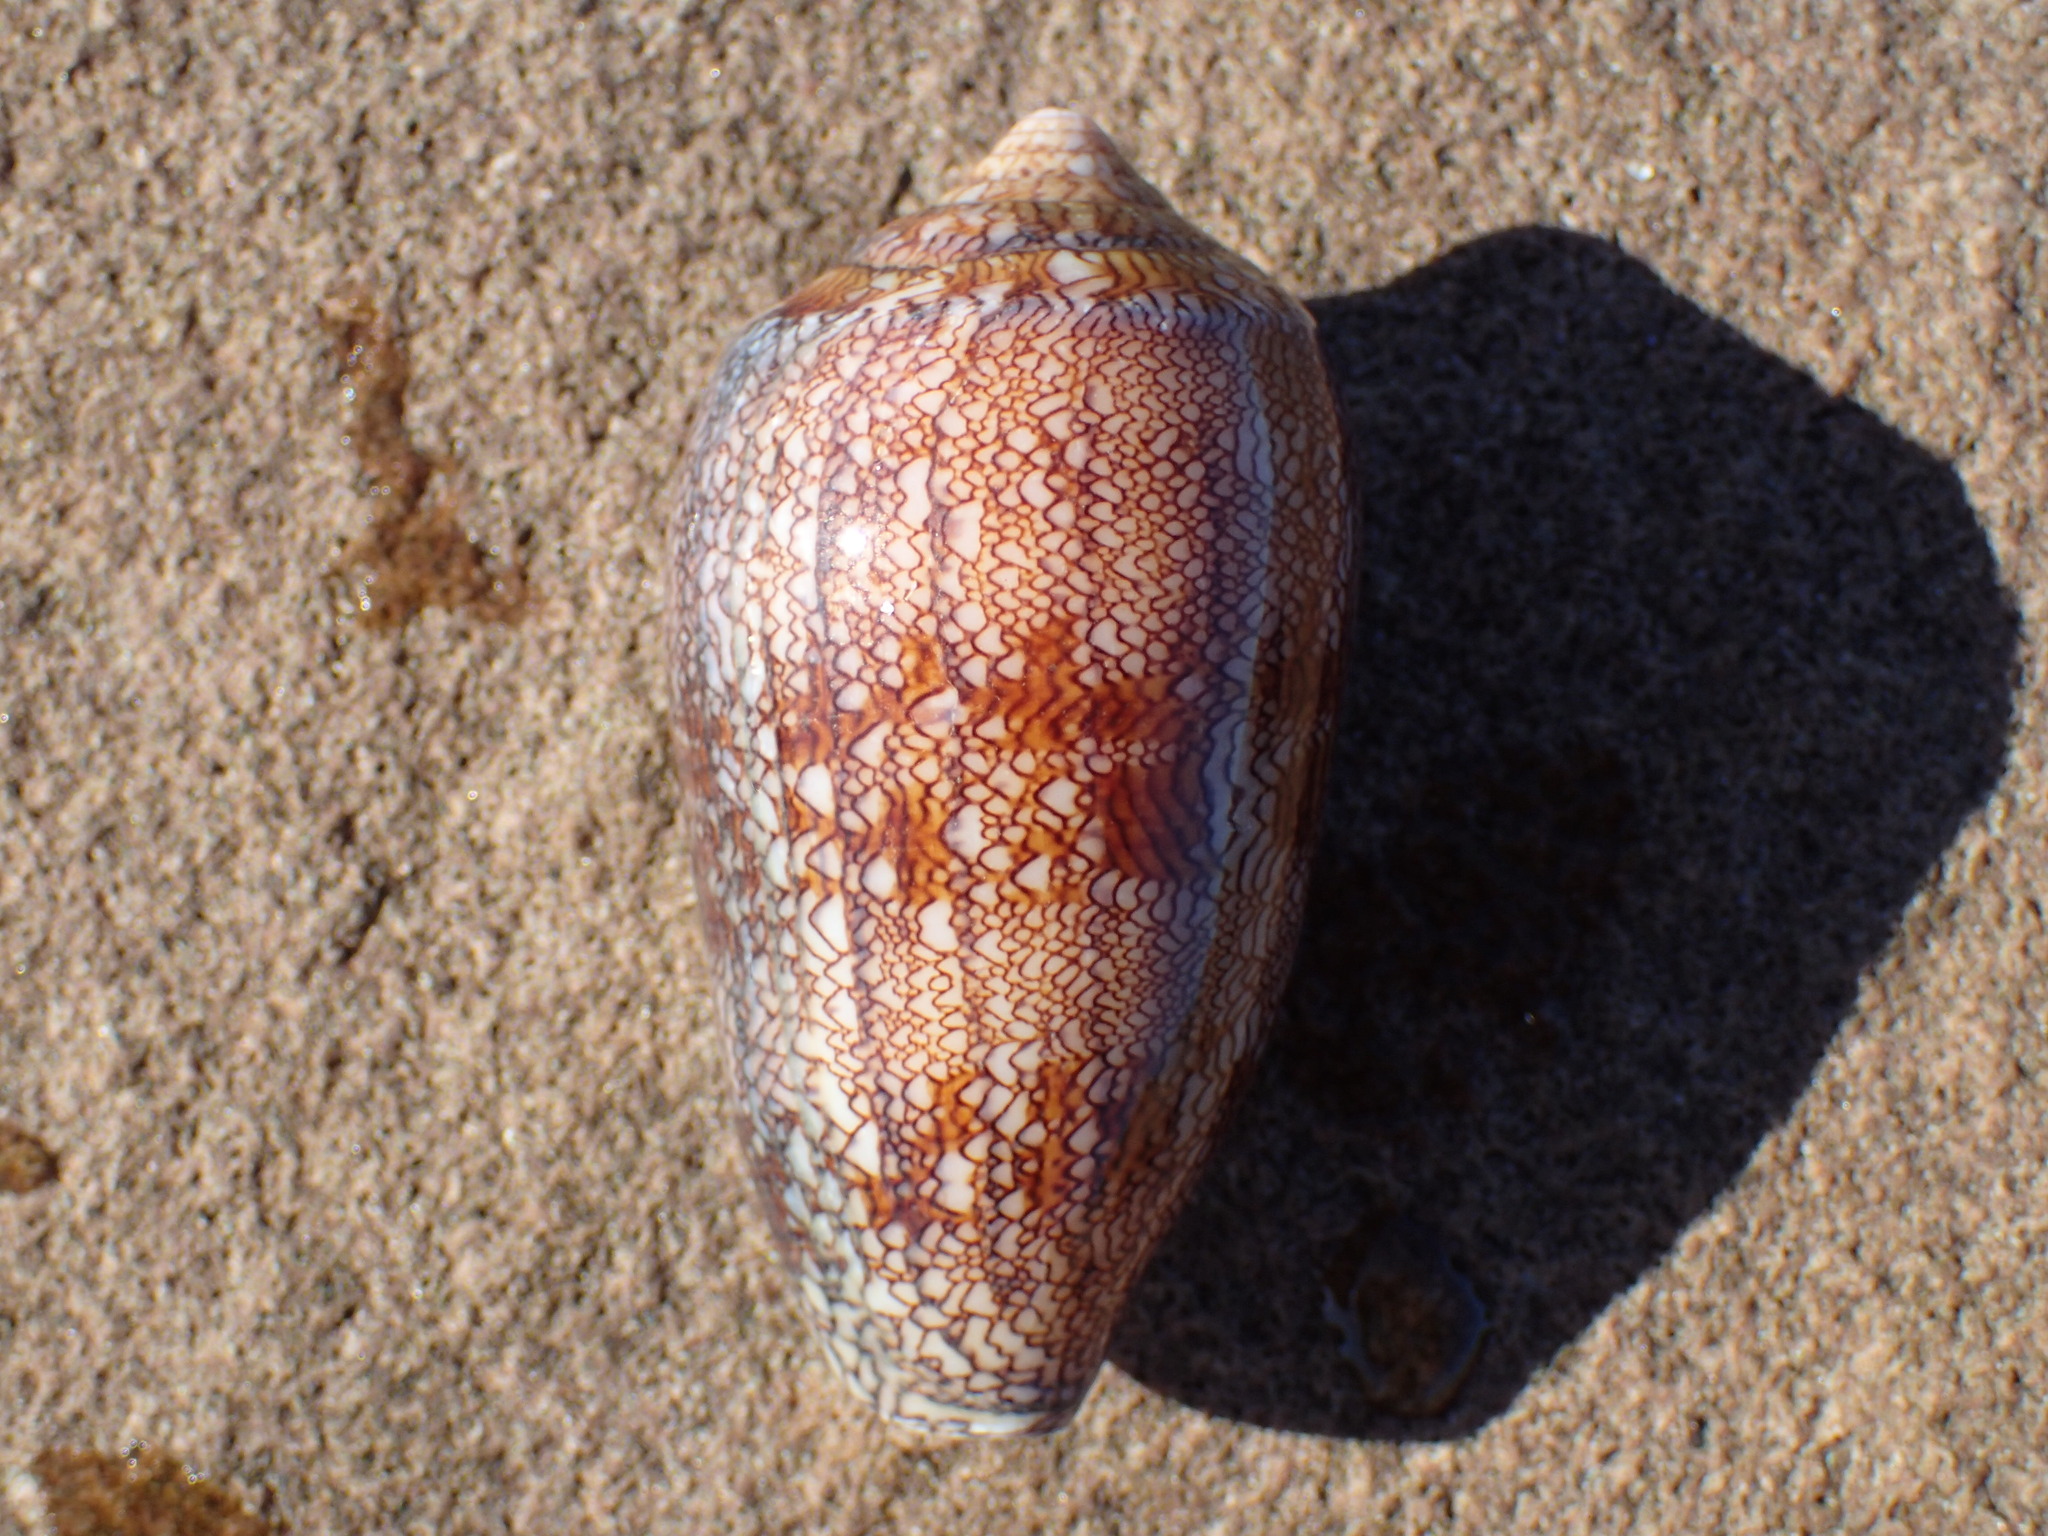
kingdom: Animalia
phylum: Mollusca
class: Gastropoda
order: Neogastropoda
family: Conidae
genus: Conus
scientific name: Conus archiepiscopus
